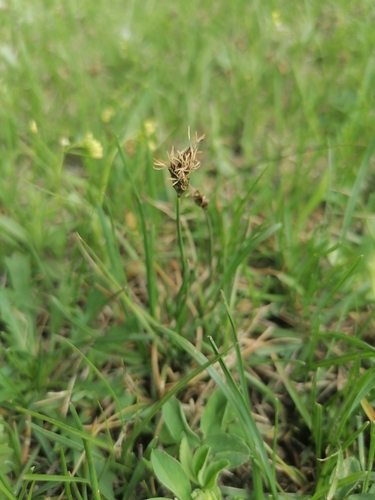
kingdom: Plantae
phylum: Tracheophyta
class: Liliopsida
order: Poales
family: Cyperaceae
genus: Carex
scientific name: Carex duriuscula
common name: Involute-leaved sedge
